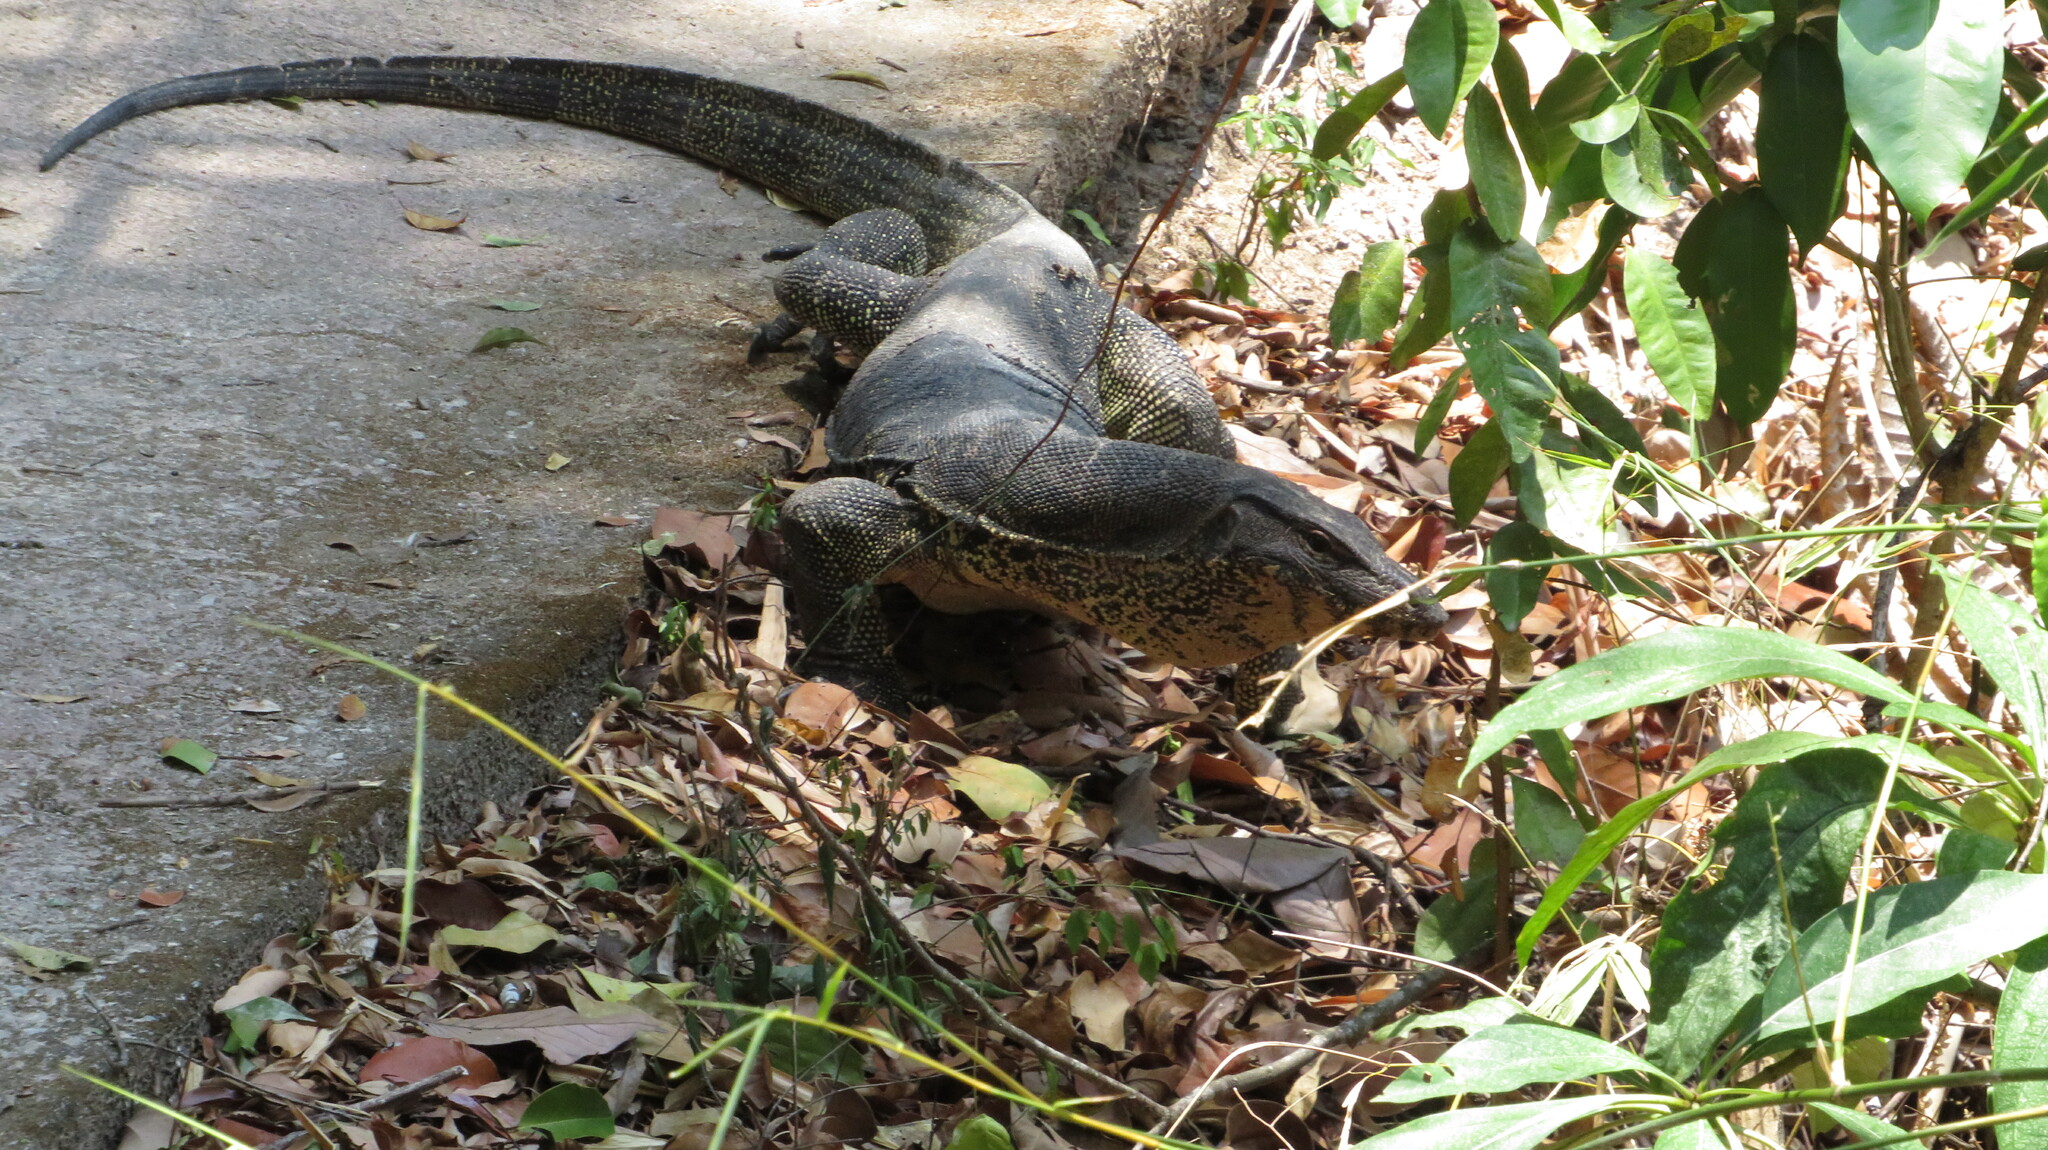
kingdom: Animalia
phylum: Chordata
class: Squamata
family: Varanidae
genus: Varanus
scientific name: Varanus salvator
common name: Common water monitor
